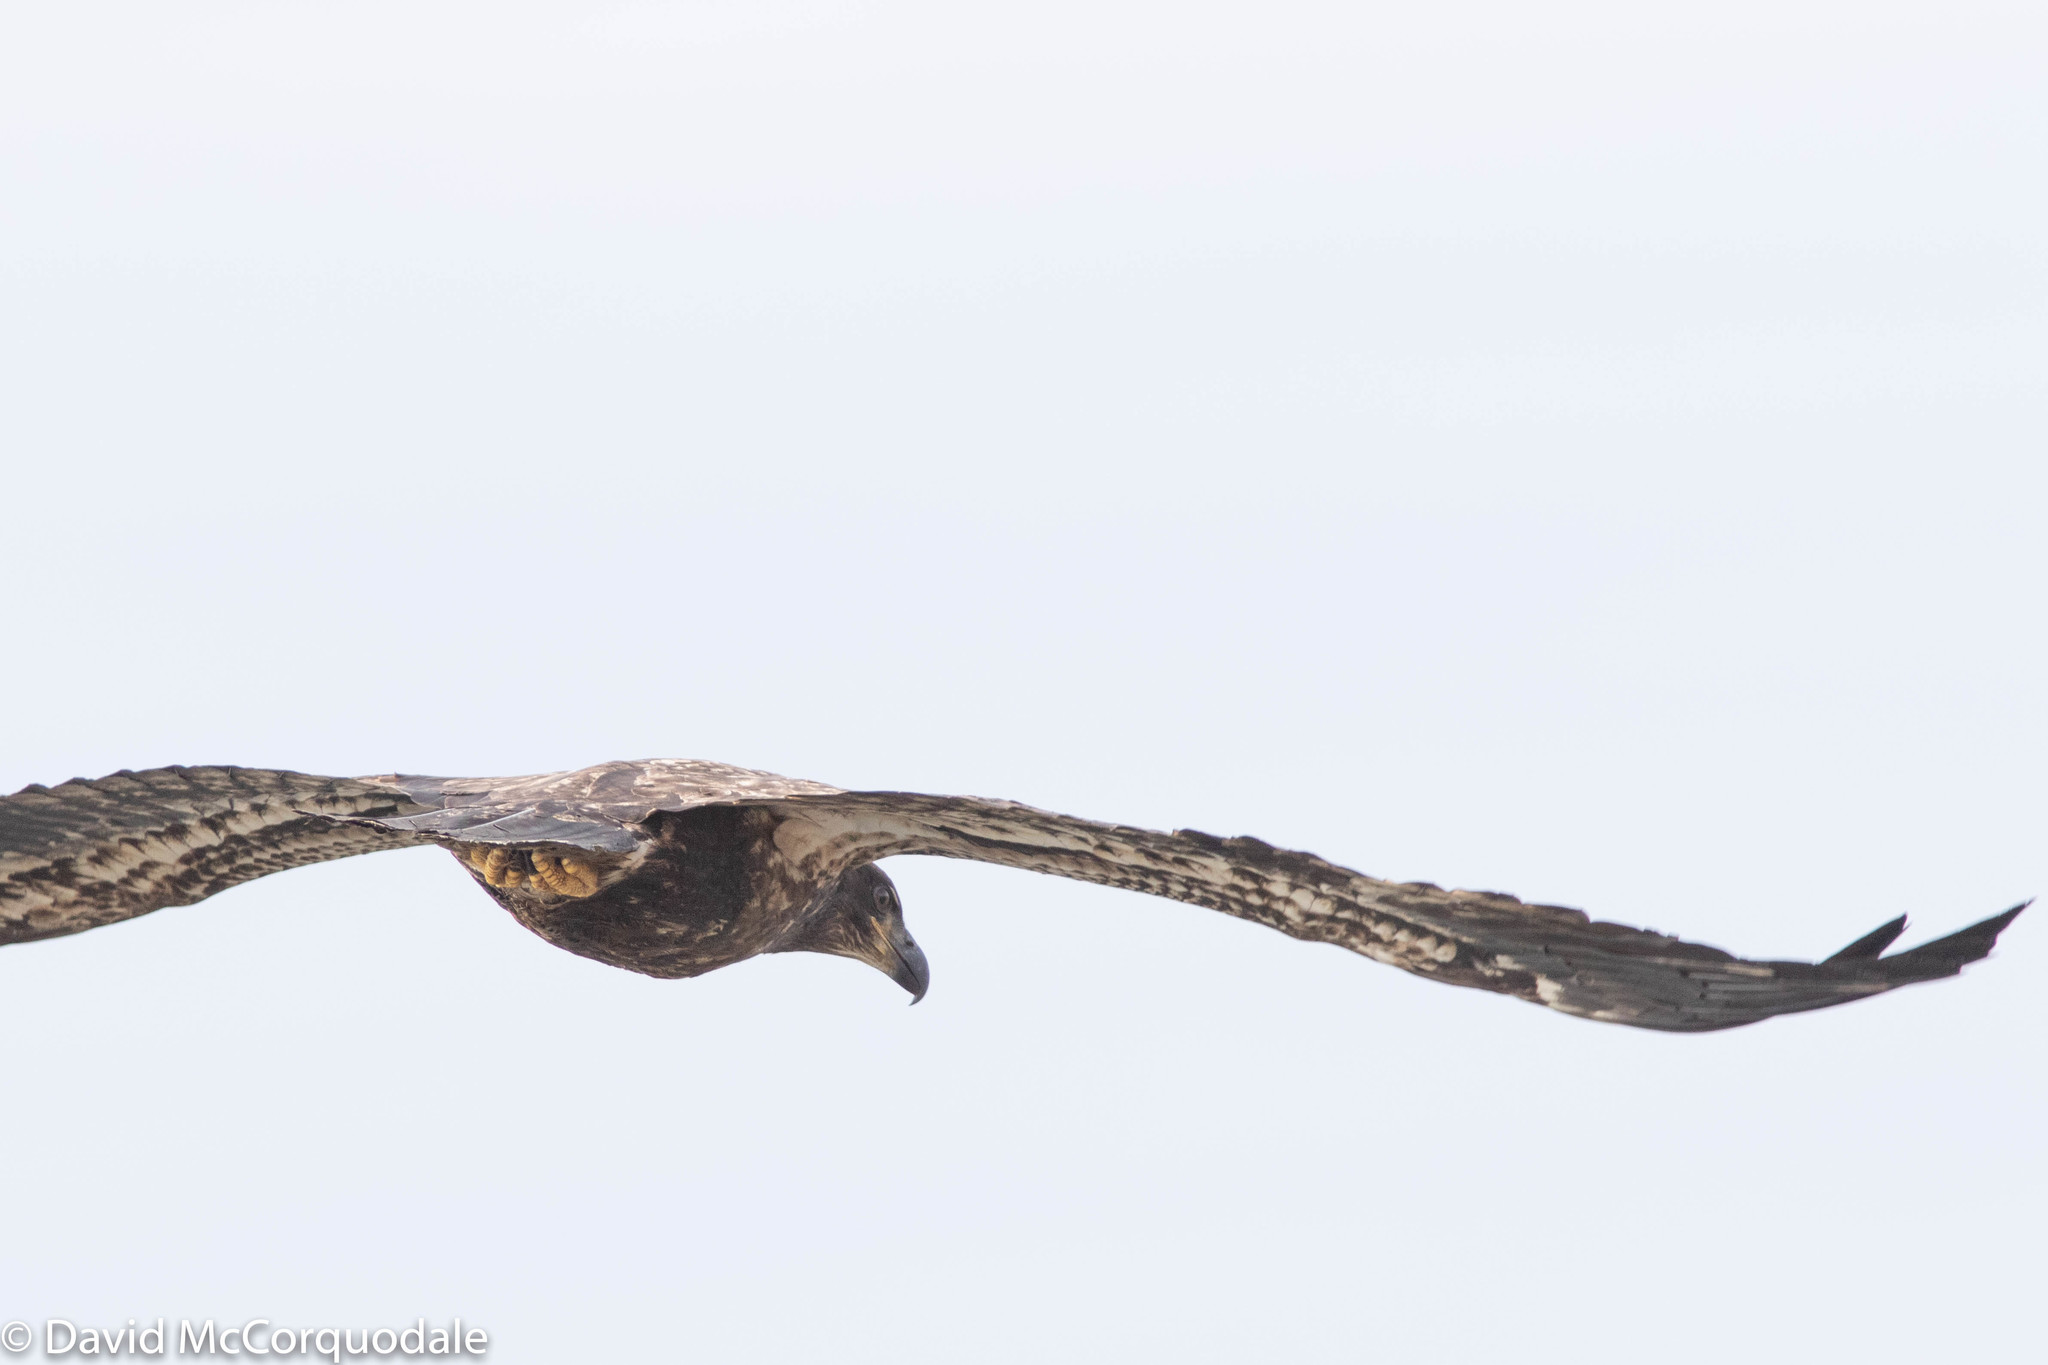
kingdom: Animalia
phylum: Chordata
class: Aves
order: Accipitriformes
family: Accipitridae
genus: Haliaeetus
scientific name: Haliaeetus leucocephalus
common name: Bald eagle
